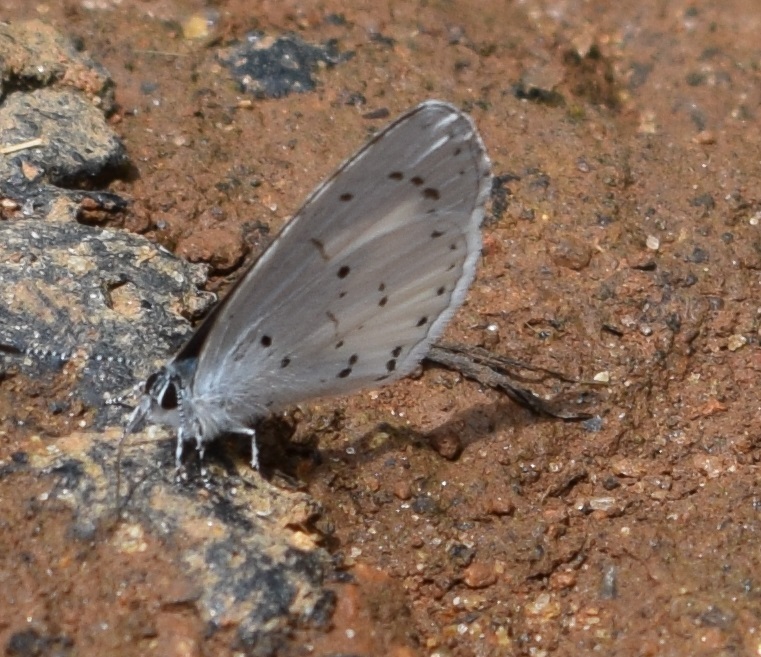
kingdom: Animalia
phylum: Arthropoda
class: Insecta
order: Lepidoptera
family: Lycaenidae
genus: Udara
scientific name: Udara akasa
